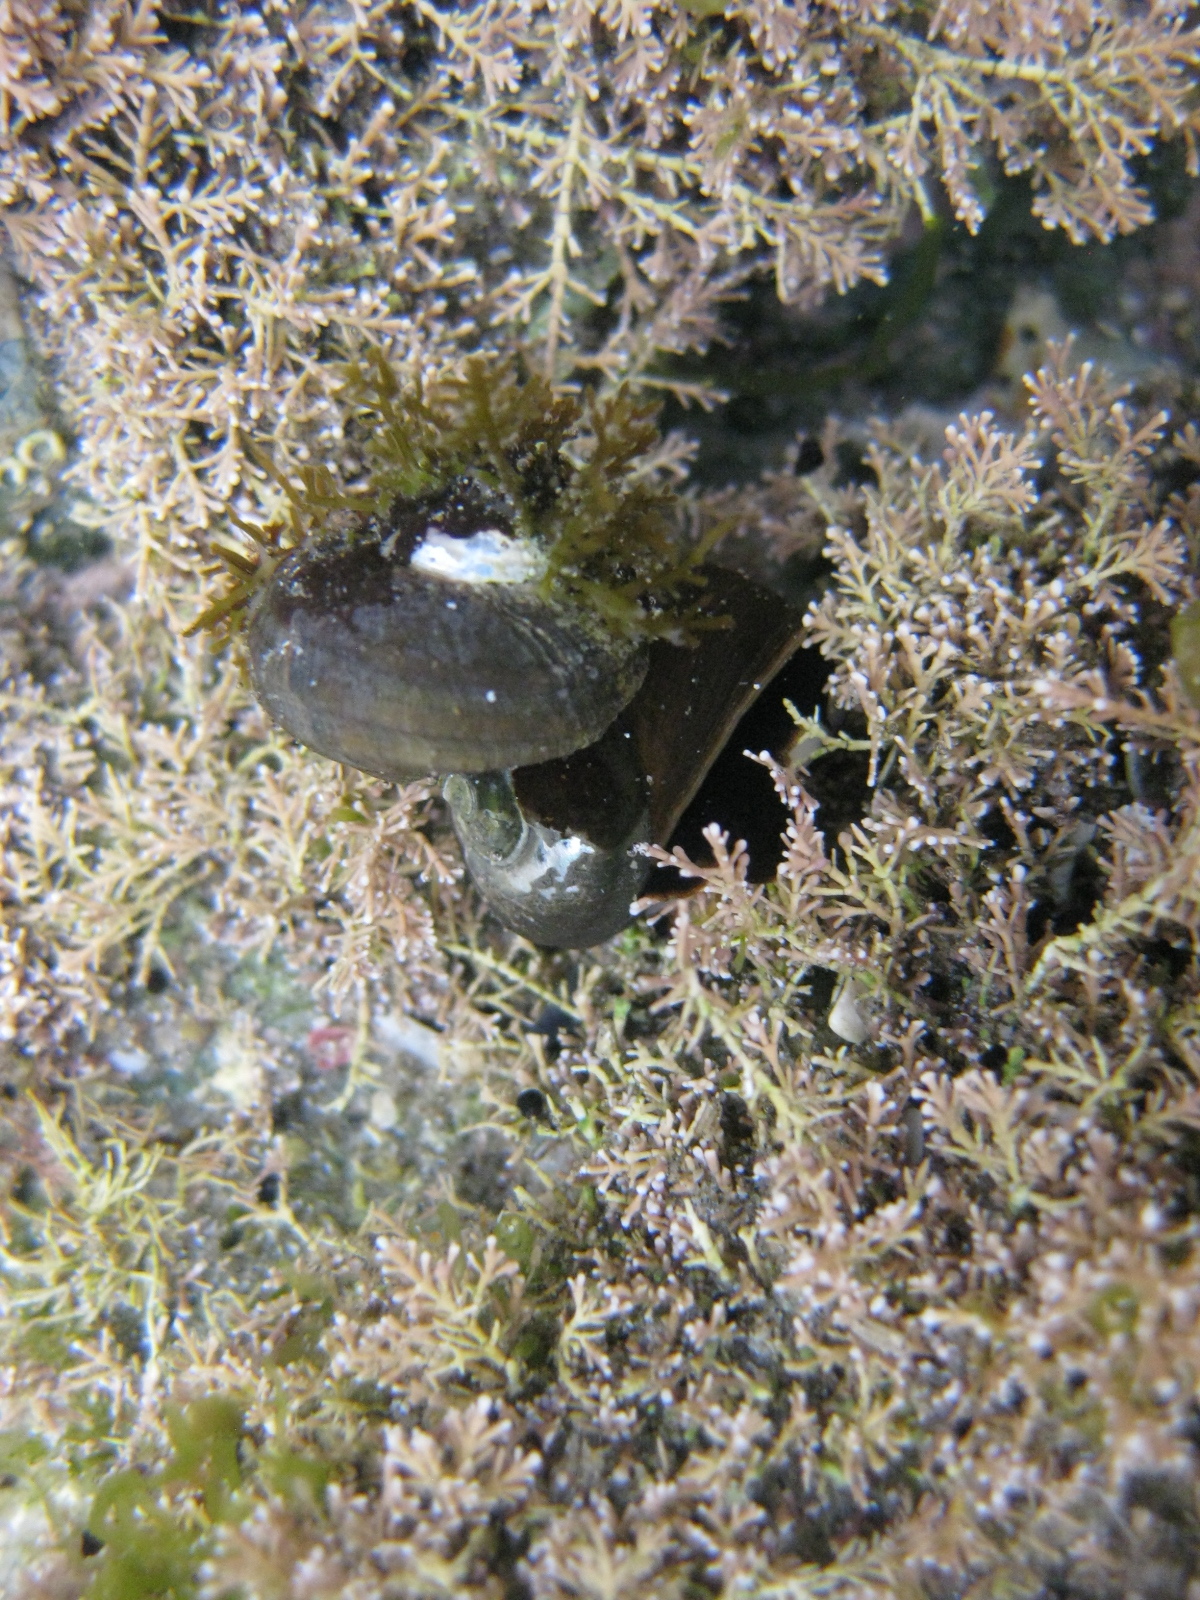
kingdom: Animalia
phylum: Mollusca
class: Gastropoda
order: Trochida
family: Turbinidae
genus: Lunella
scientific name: Lunella smaragda
